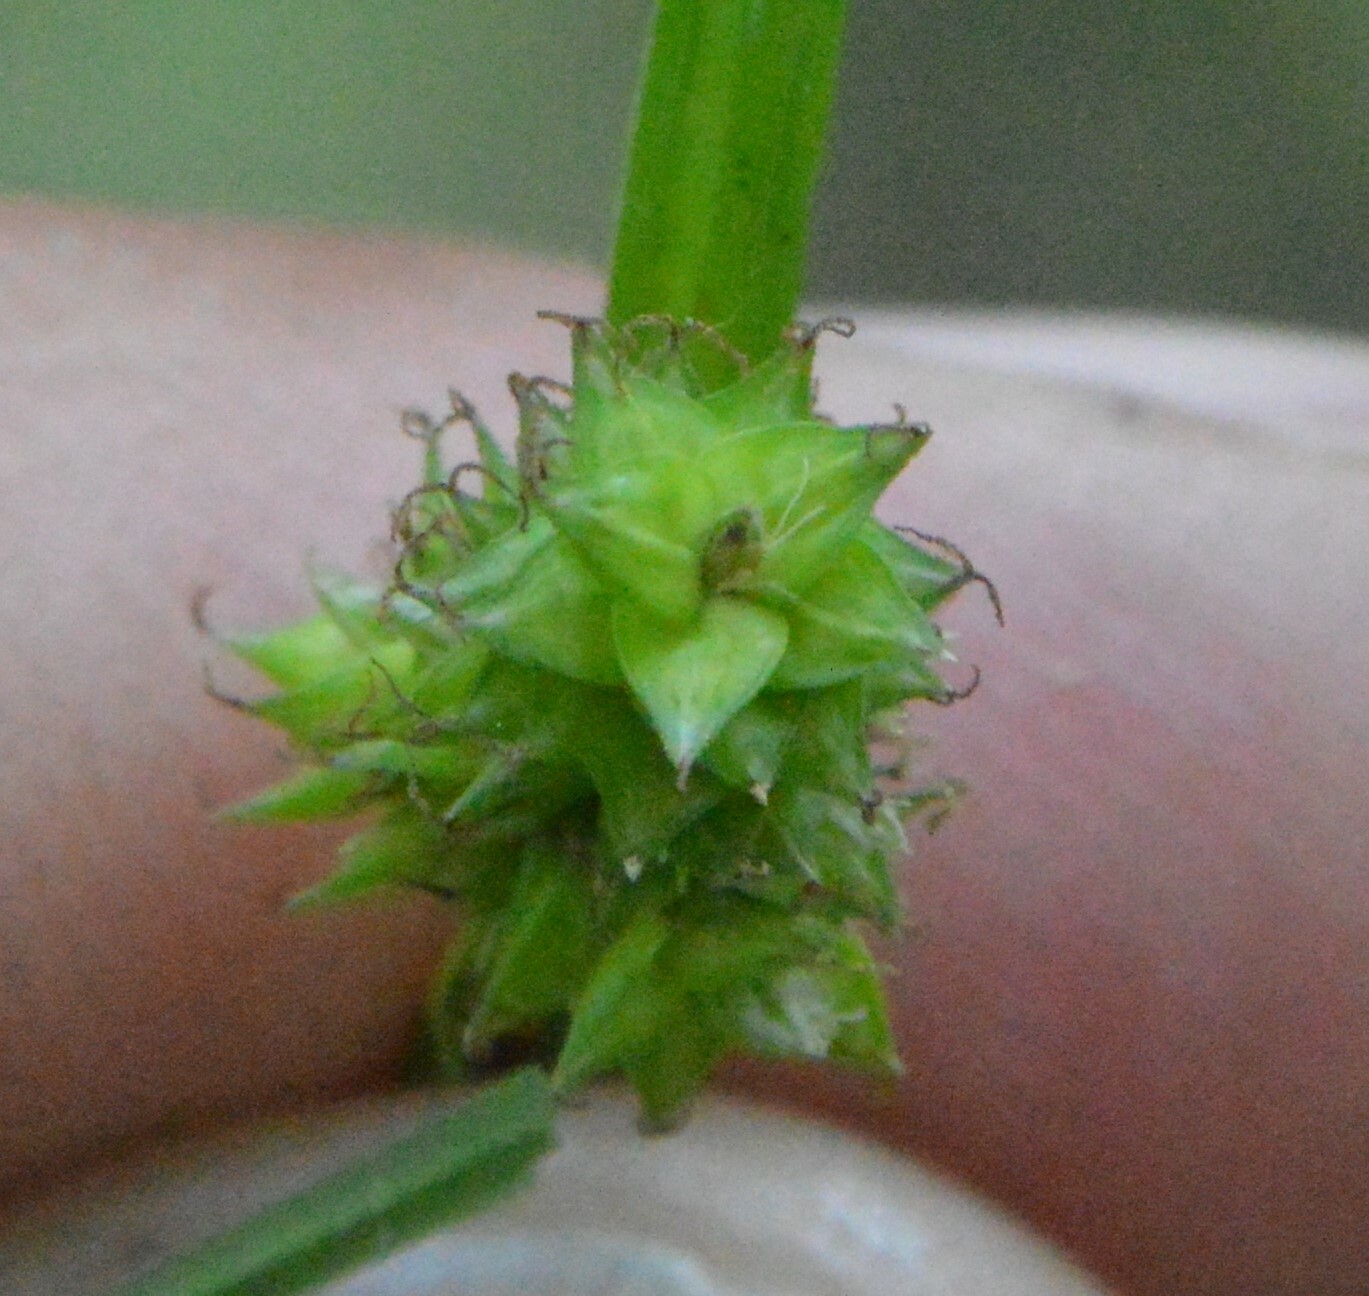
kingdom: Plantae
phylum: Tracheophyta
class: Liliopsida
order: Poales
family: Cyperaceae
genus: Carex
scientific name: Carex leavenworthii
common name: Leavenworth's bracted sedge
